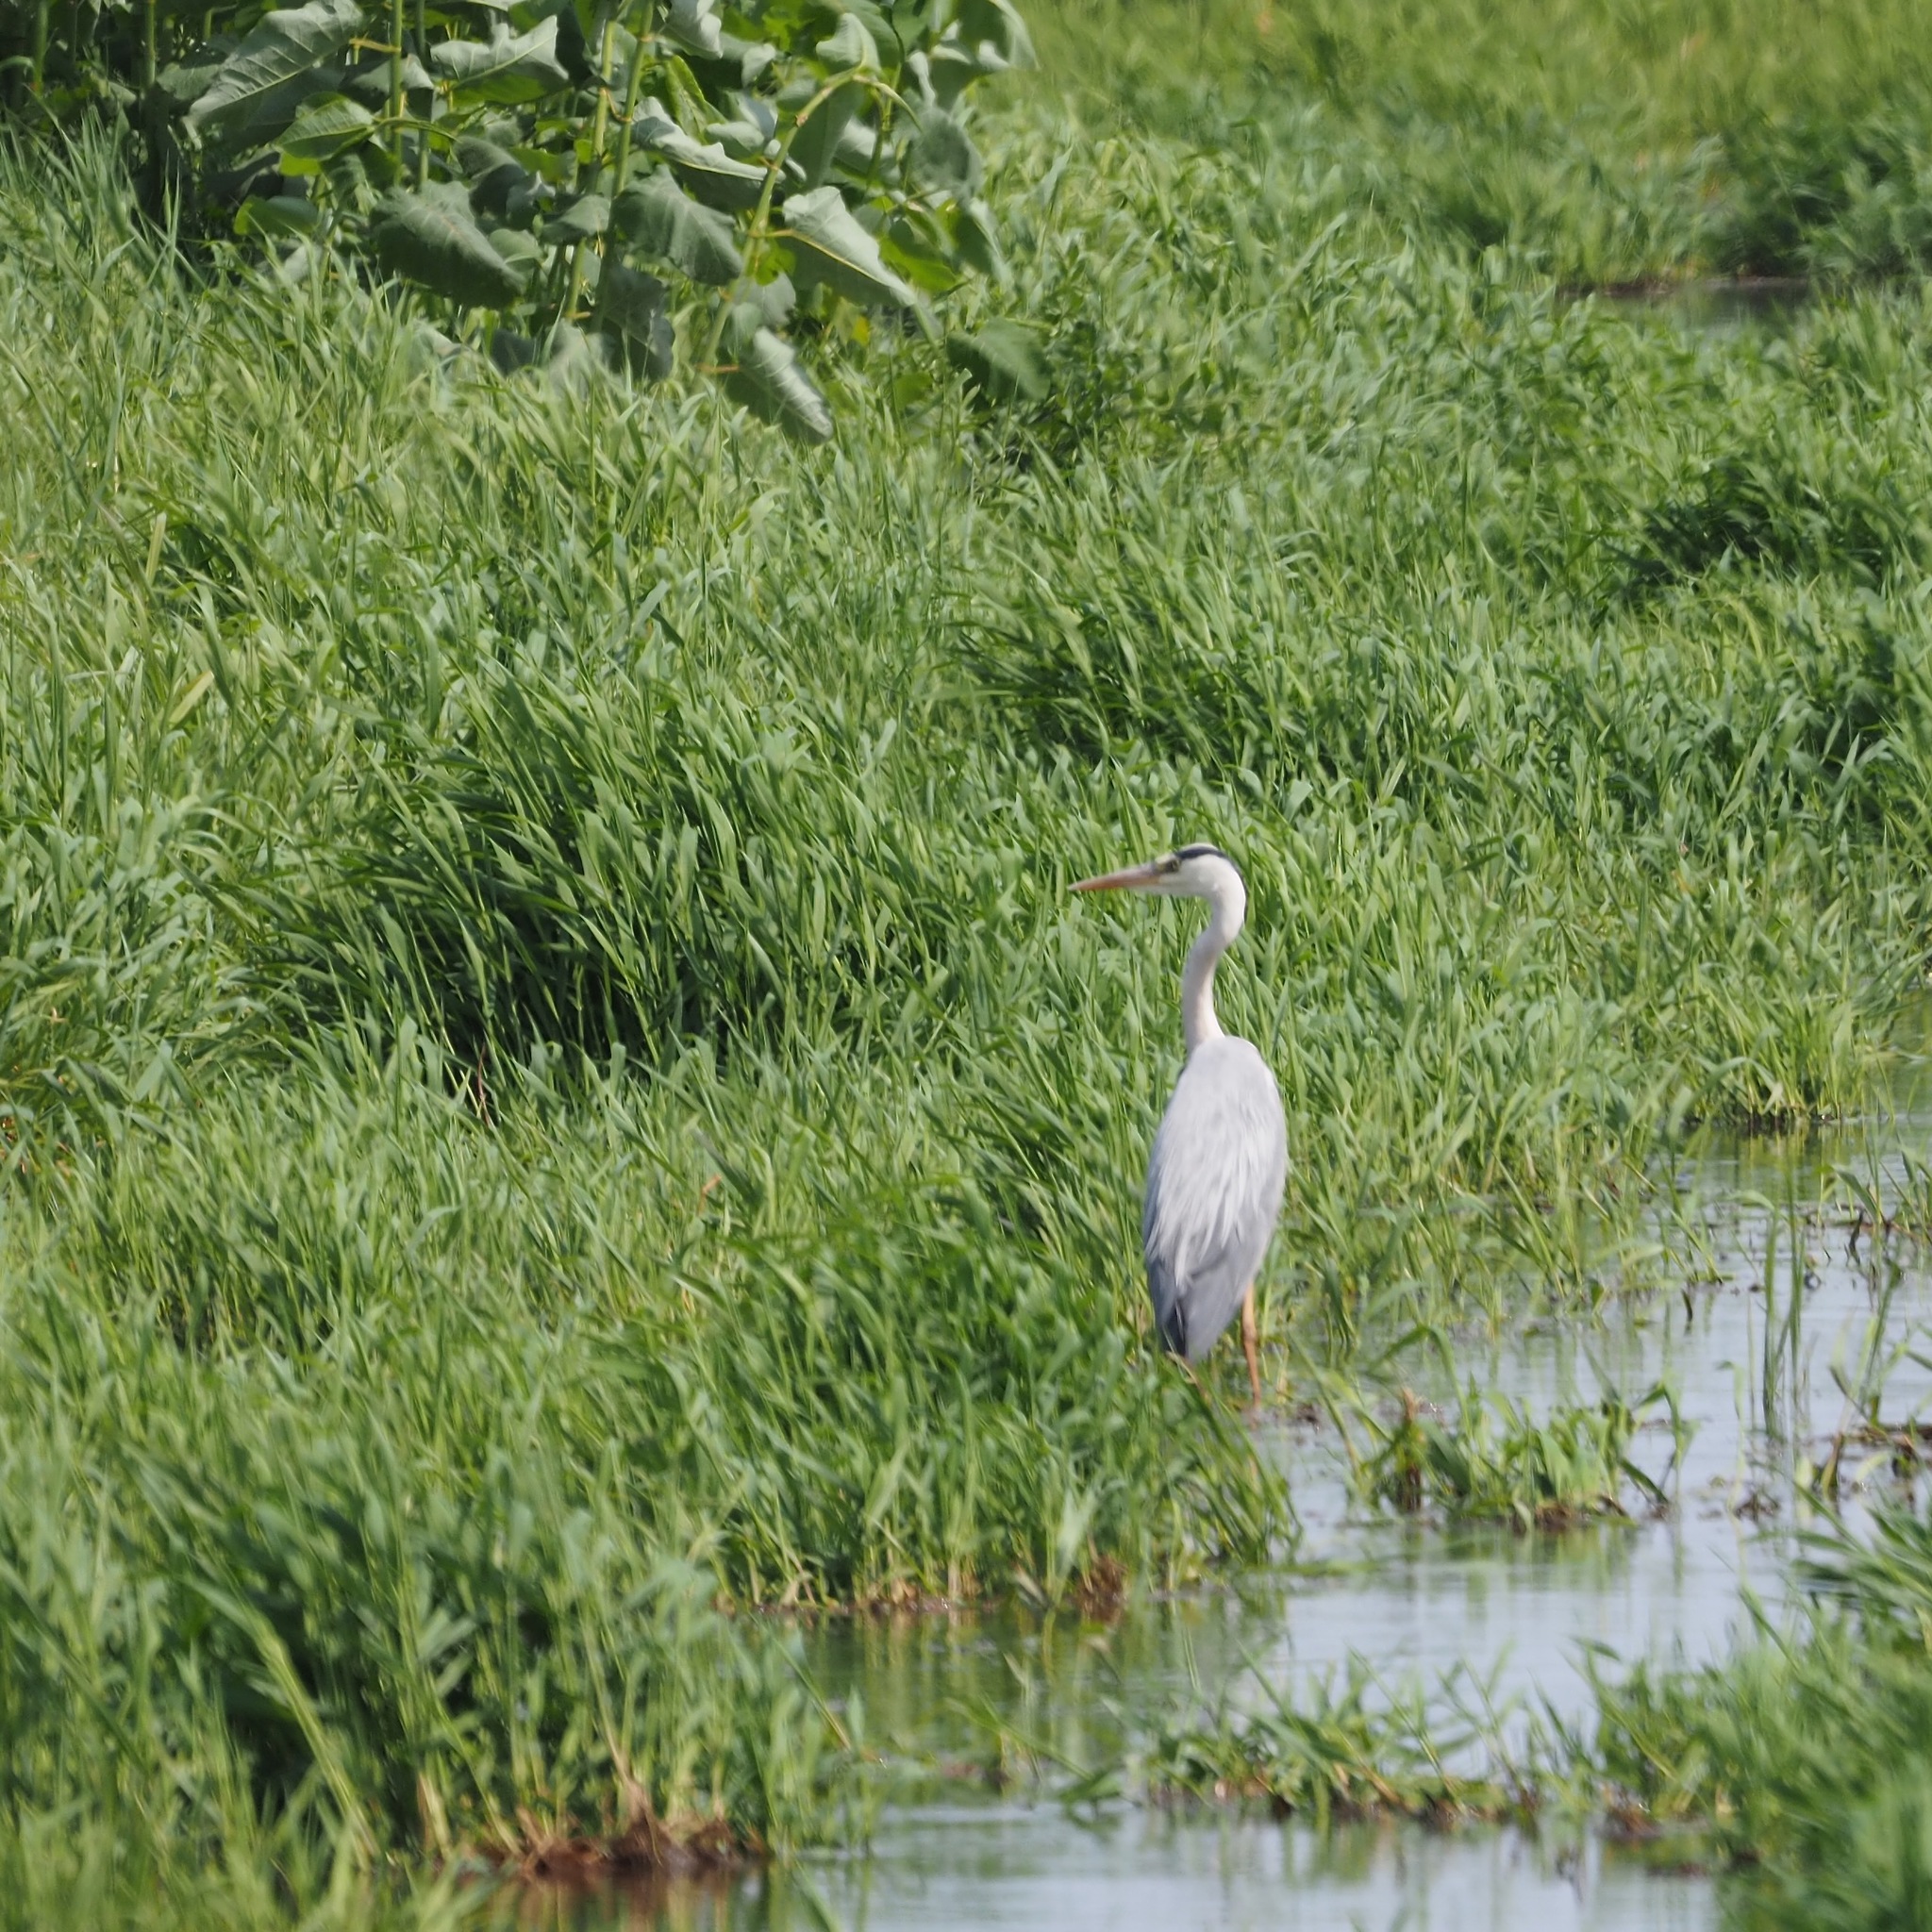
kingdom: Animalia
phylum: Chordata
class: Aves
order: Pelecaniformes
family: Ardeidae
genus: Ardea
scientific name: Ardea cinerea
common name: Grey heron
